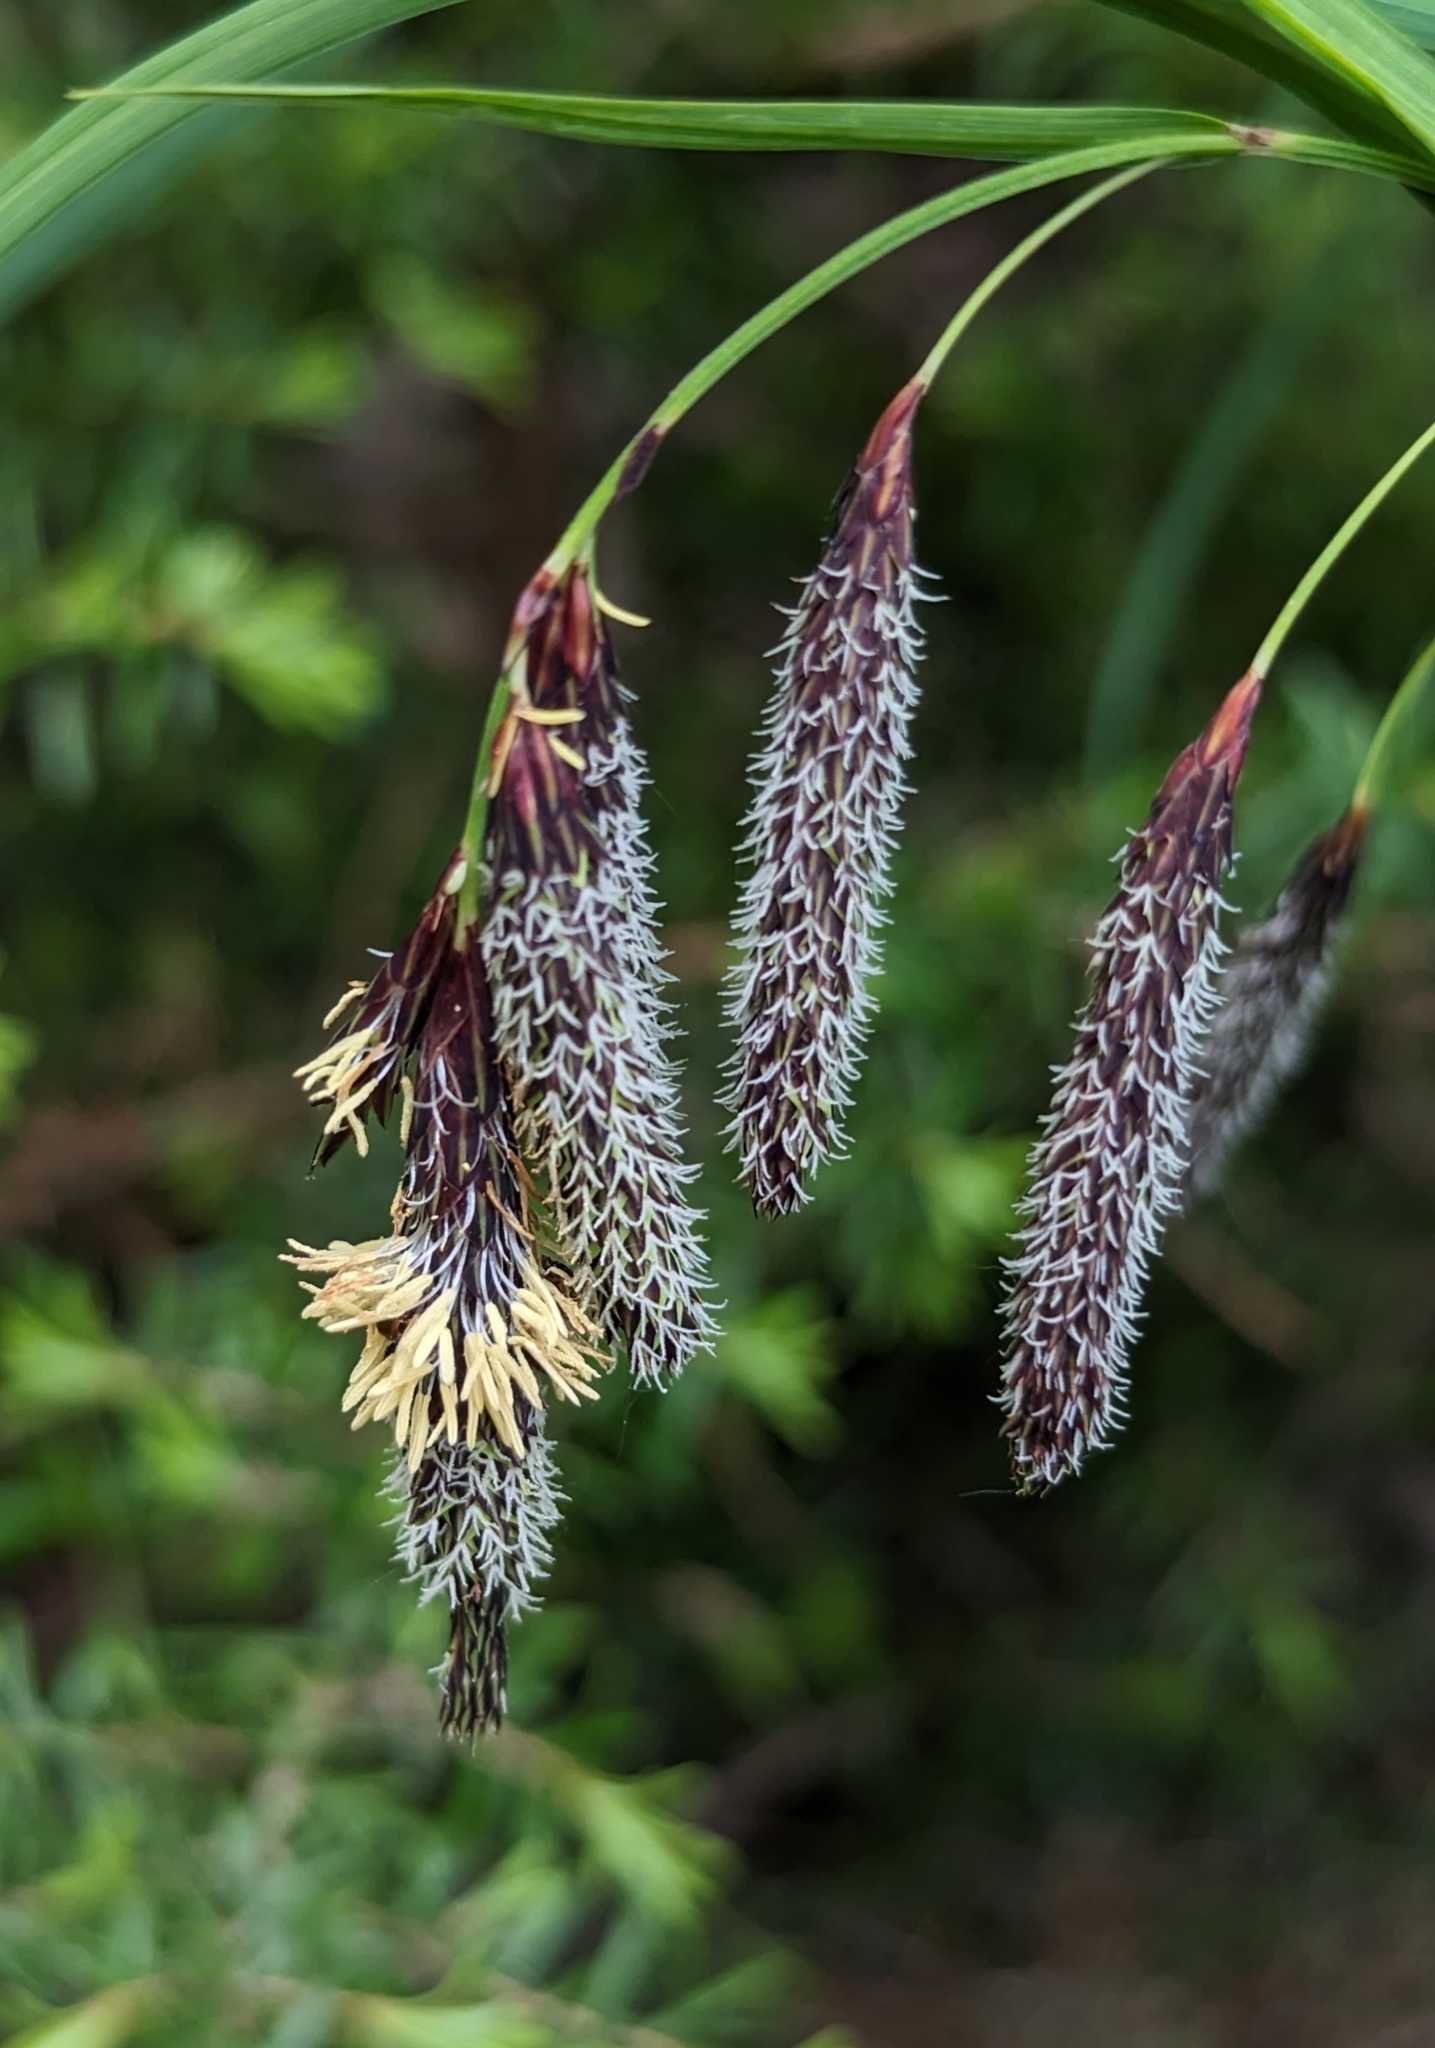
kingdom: Plantae
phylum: Tracheophyta
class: Liliopsida
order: Poales
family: Cyperaceae
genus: Carex
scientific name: Carex mertensii
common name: Mertens' sedge
